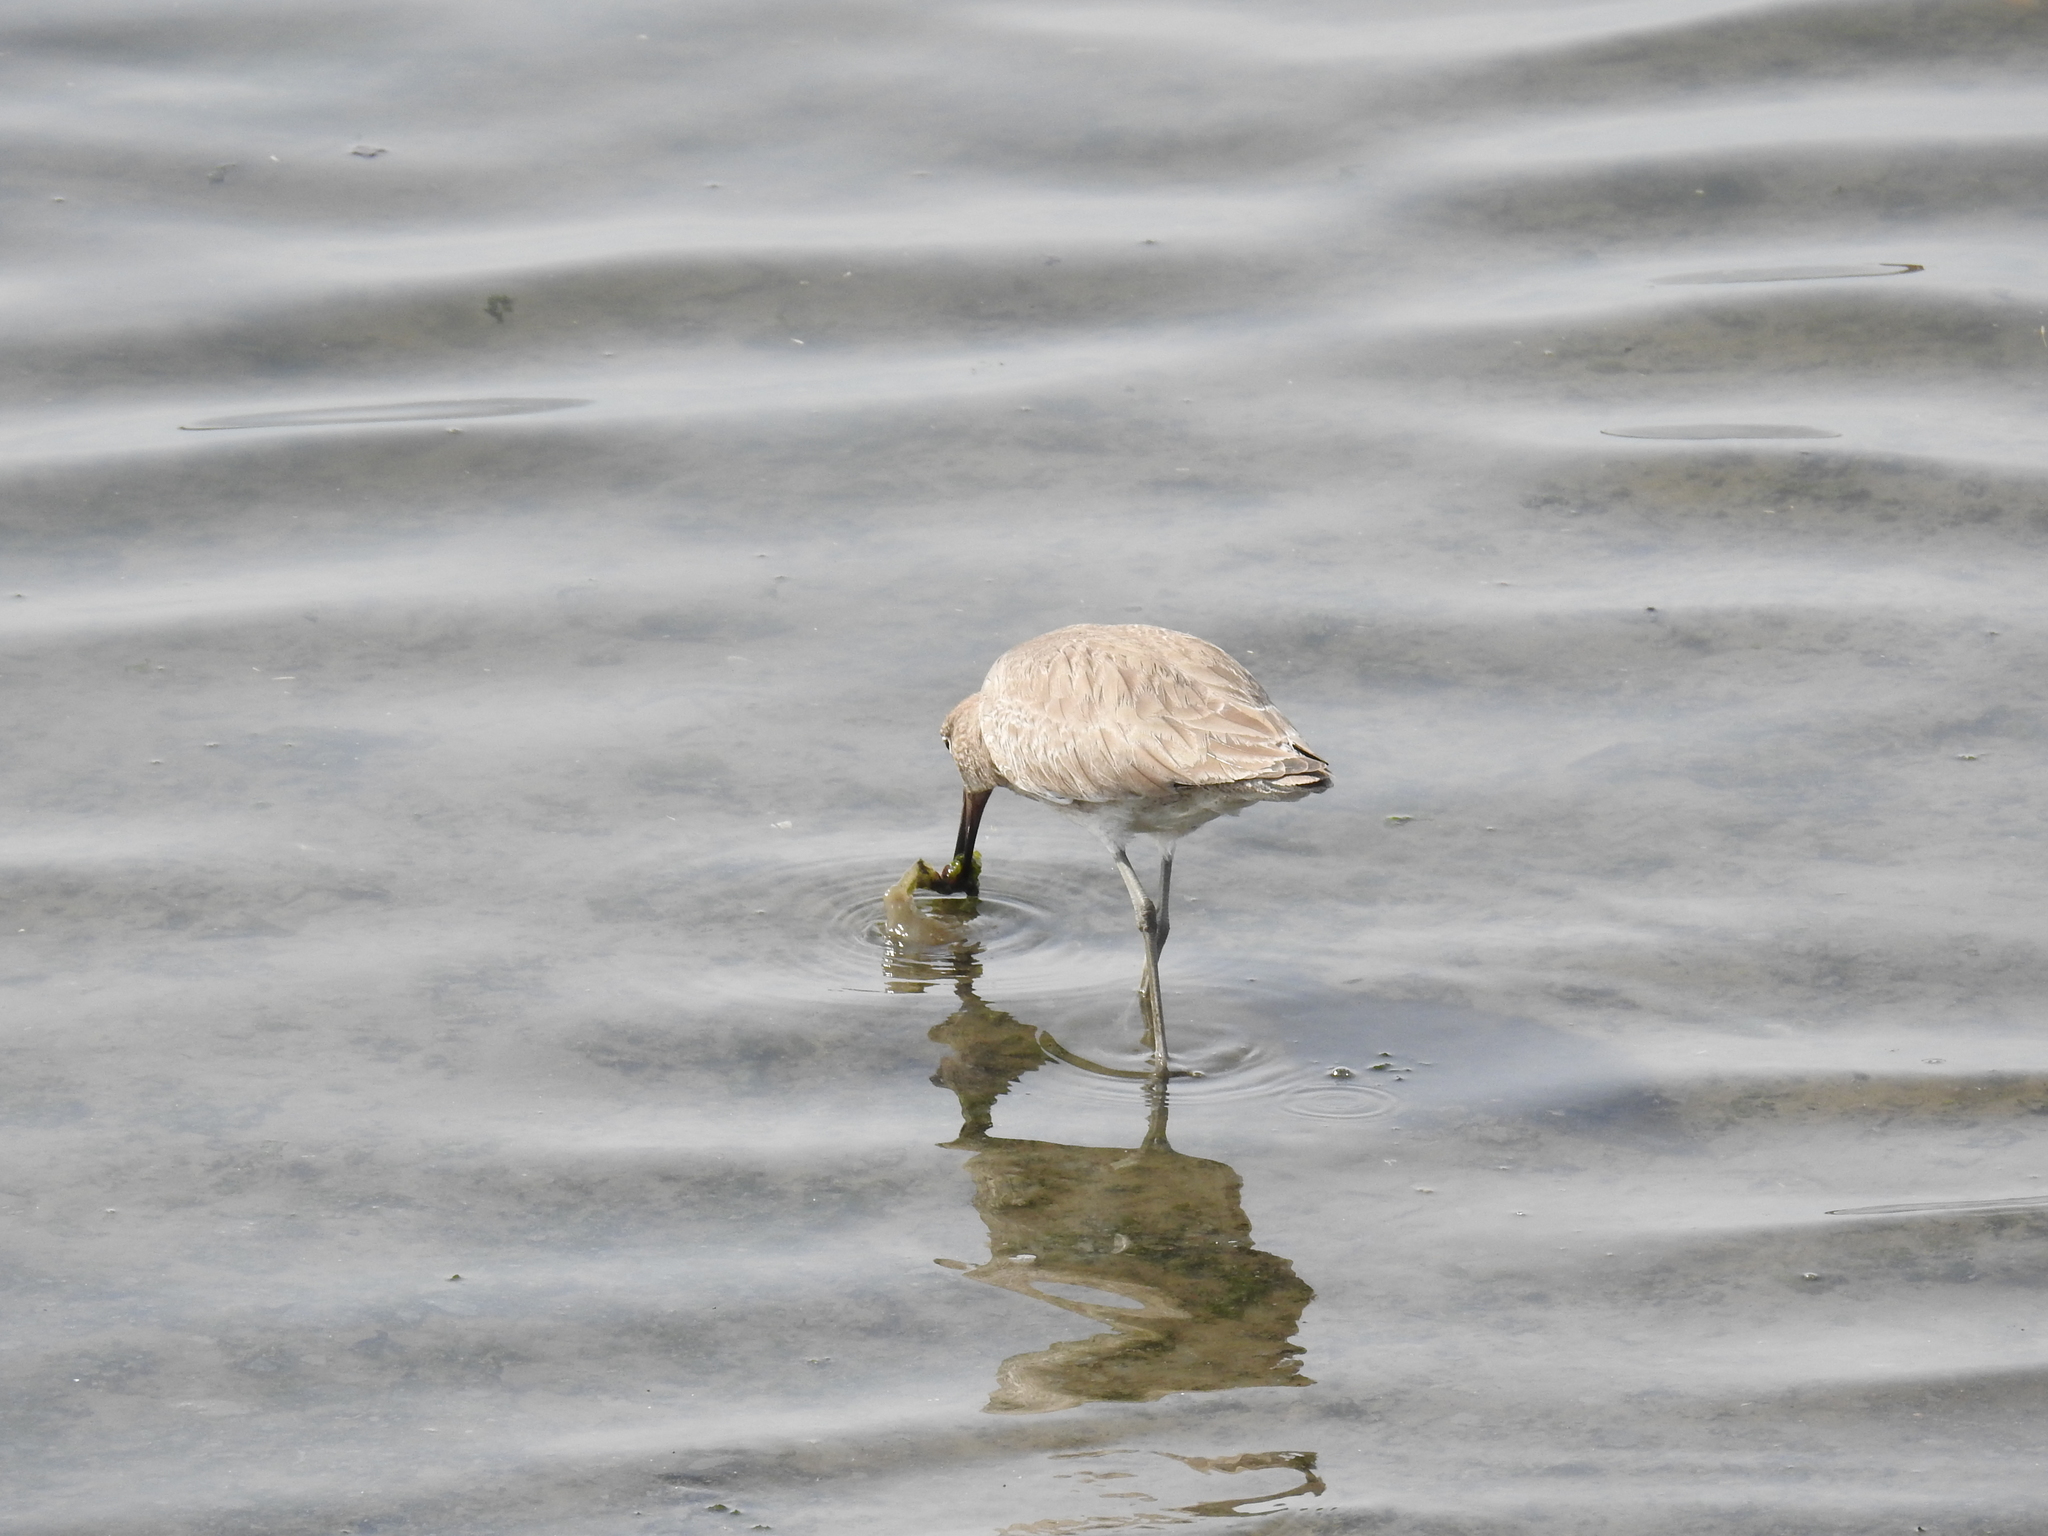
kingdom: Animalia
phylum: Chordata
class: Aves
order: Charadriiformes
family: Scolopacidae
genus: Tringa
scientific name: Tringa semipalmata
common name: Willet
